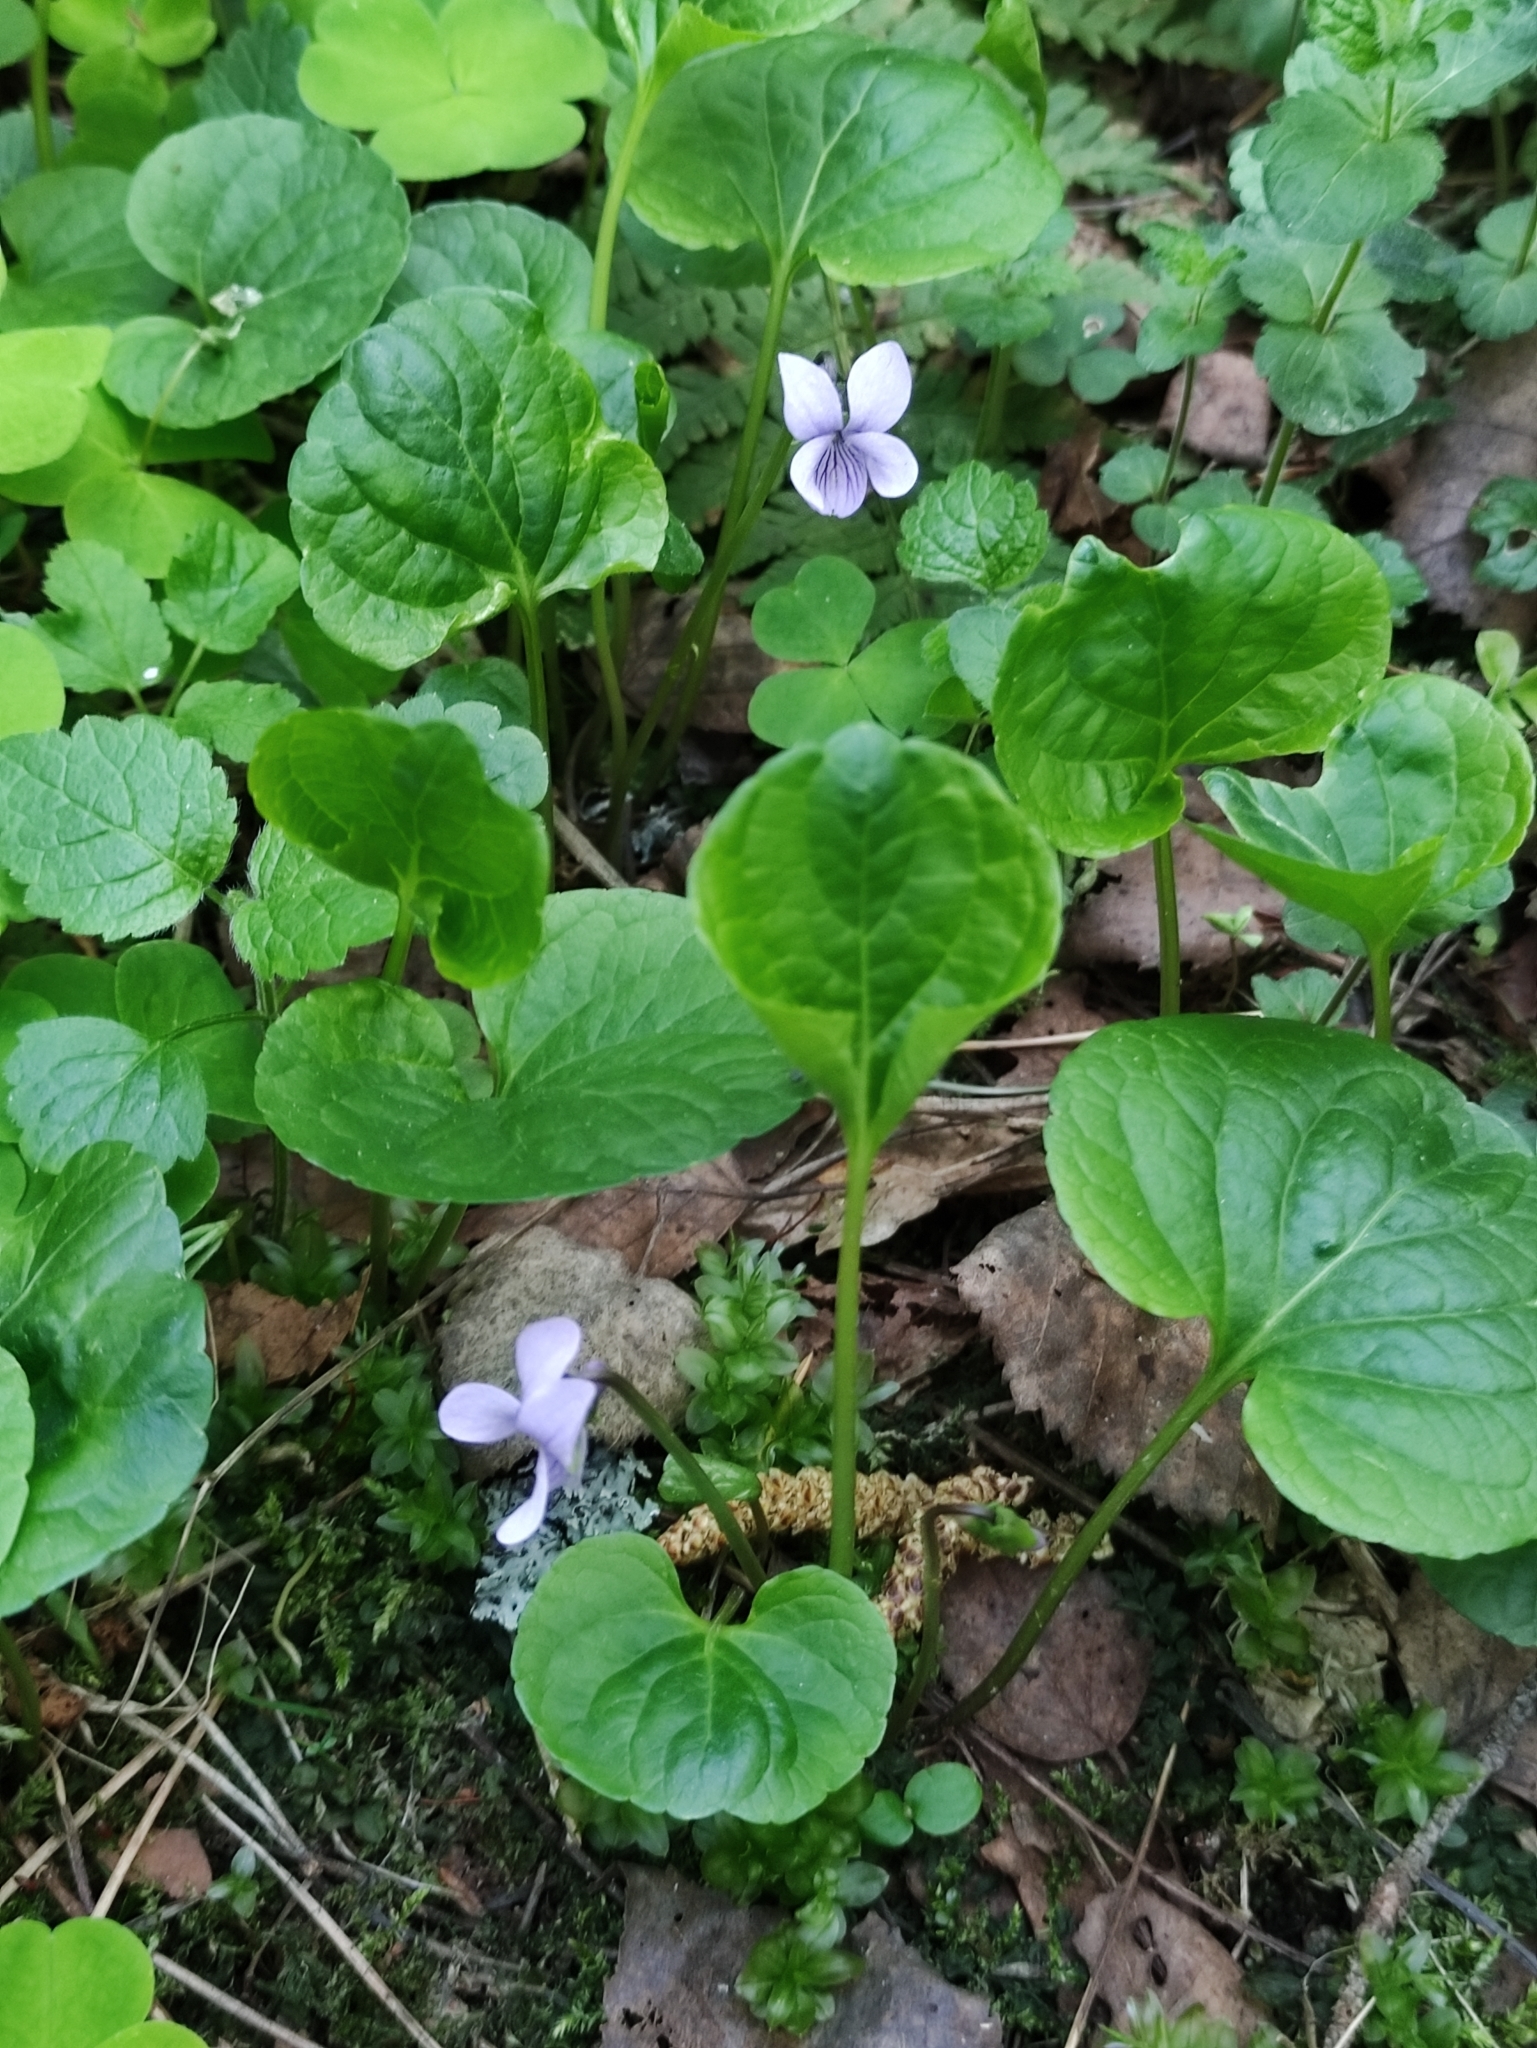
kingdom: Plantae
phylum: Tracheophyta
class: Magnoliopsida
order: Malpighiales
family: Violaceae
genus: Viola
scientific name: Viola palustris
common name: Marsh violet
